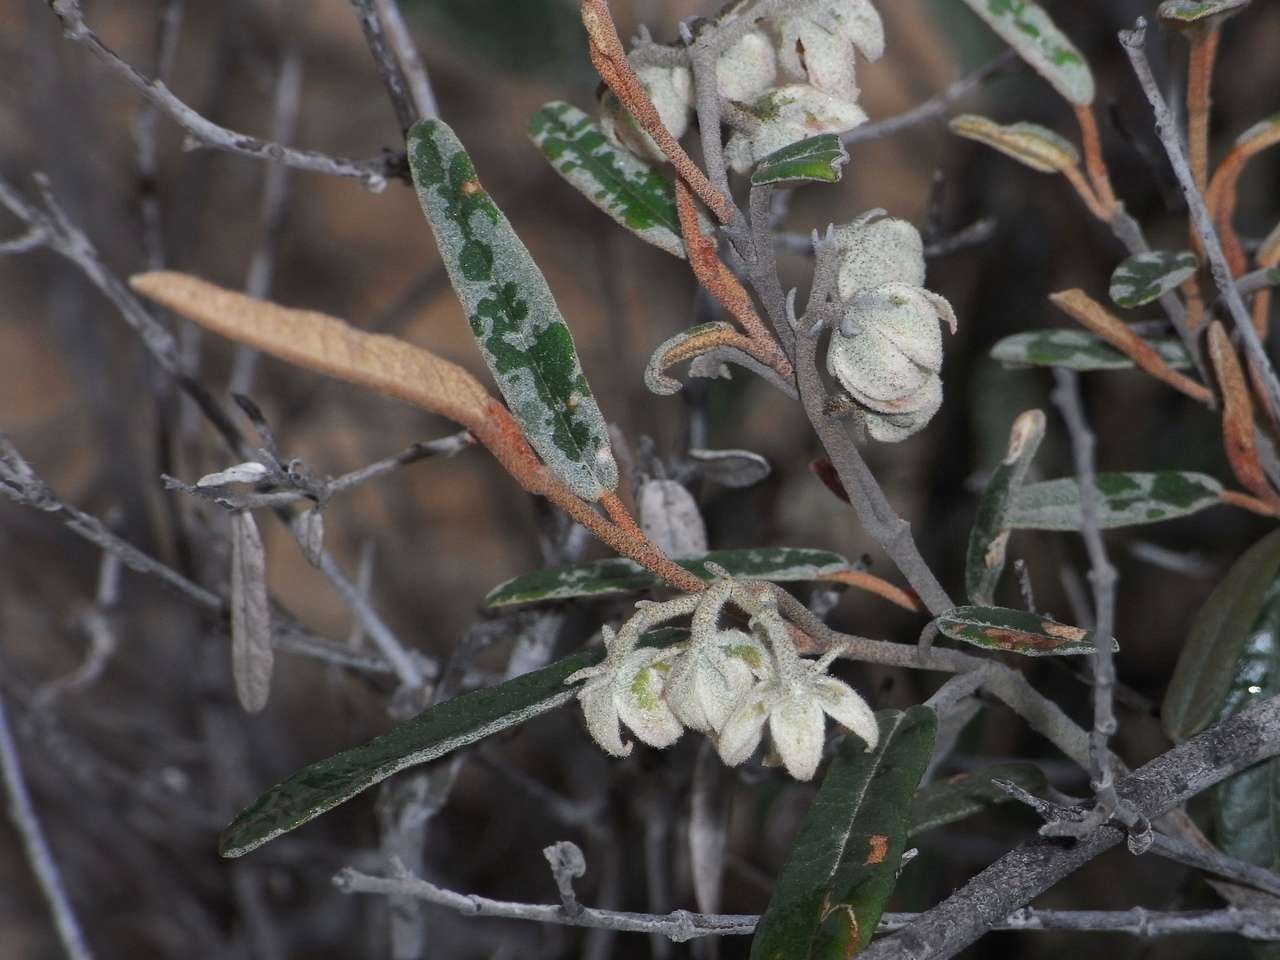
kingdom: Plantae
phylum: Tracheophyta
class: Magnoliopsida
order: Malvales
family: Malvaceae
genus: Lasiopetalum
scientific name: Lasiopetalum behrii
